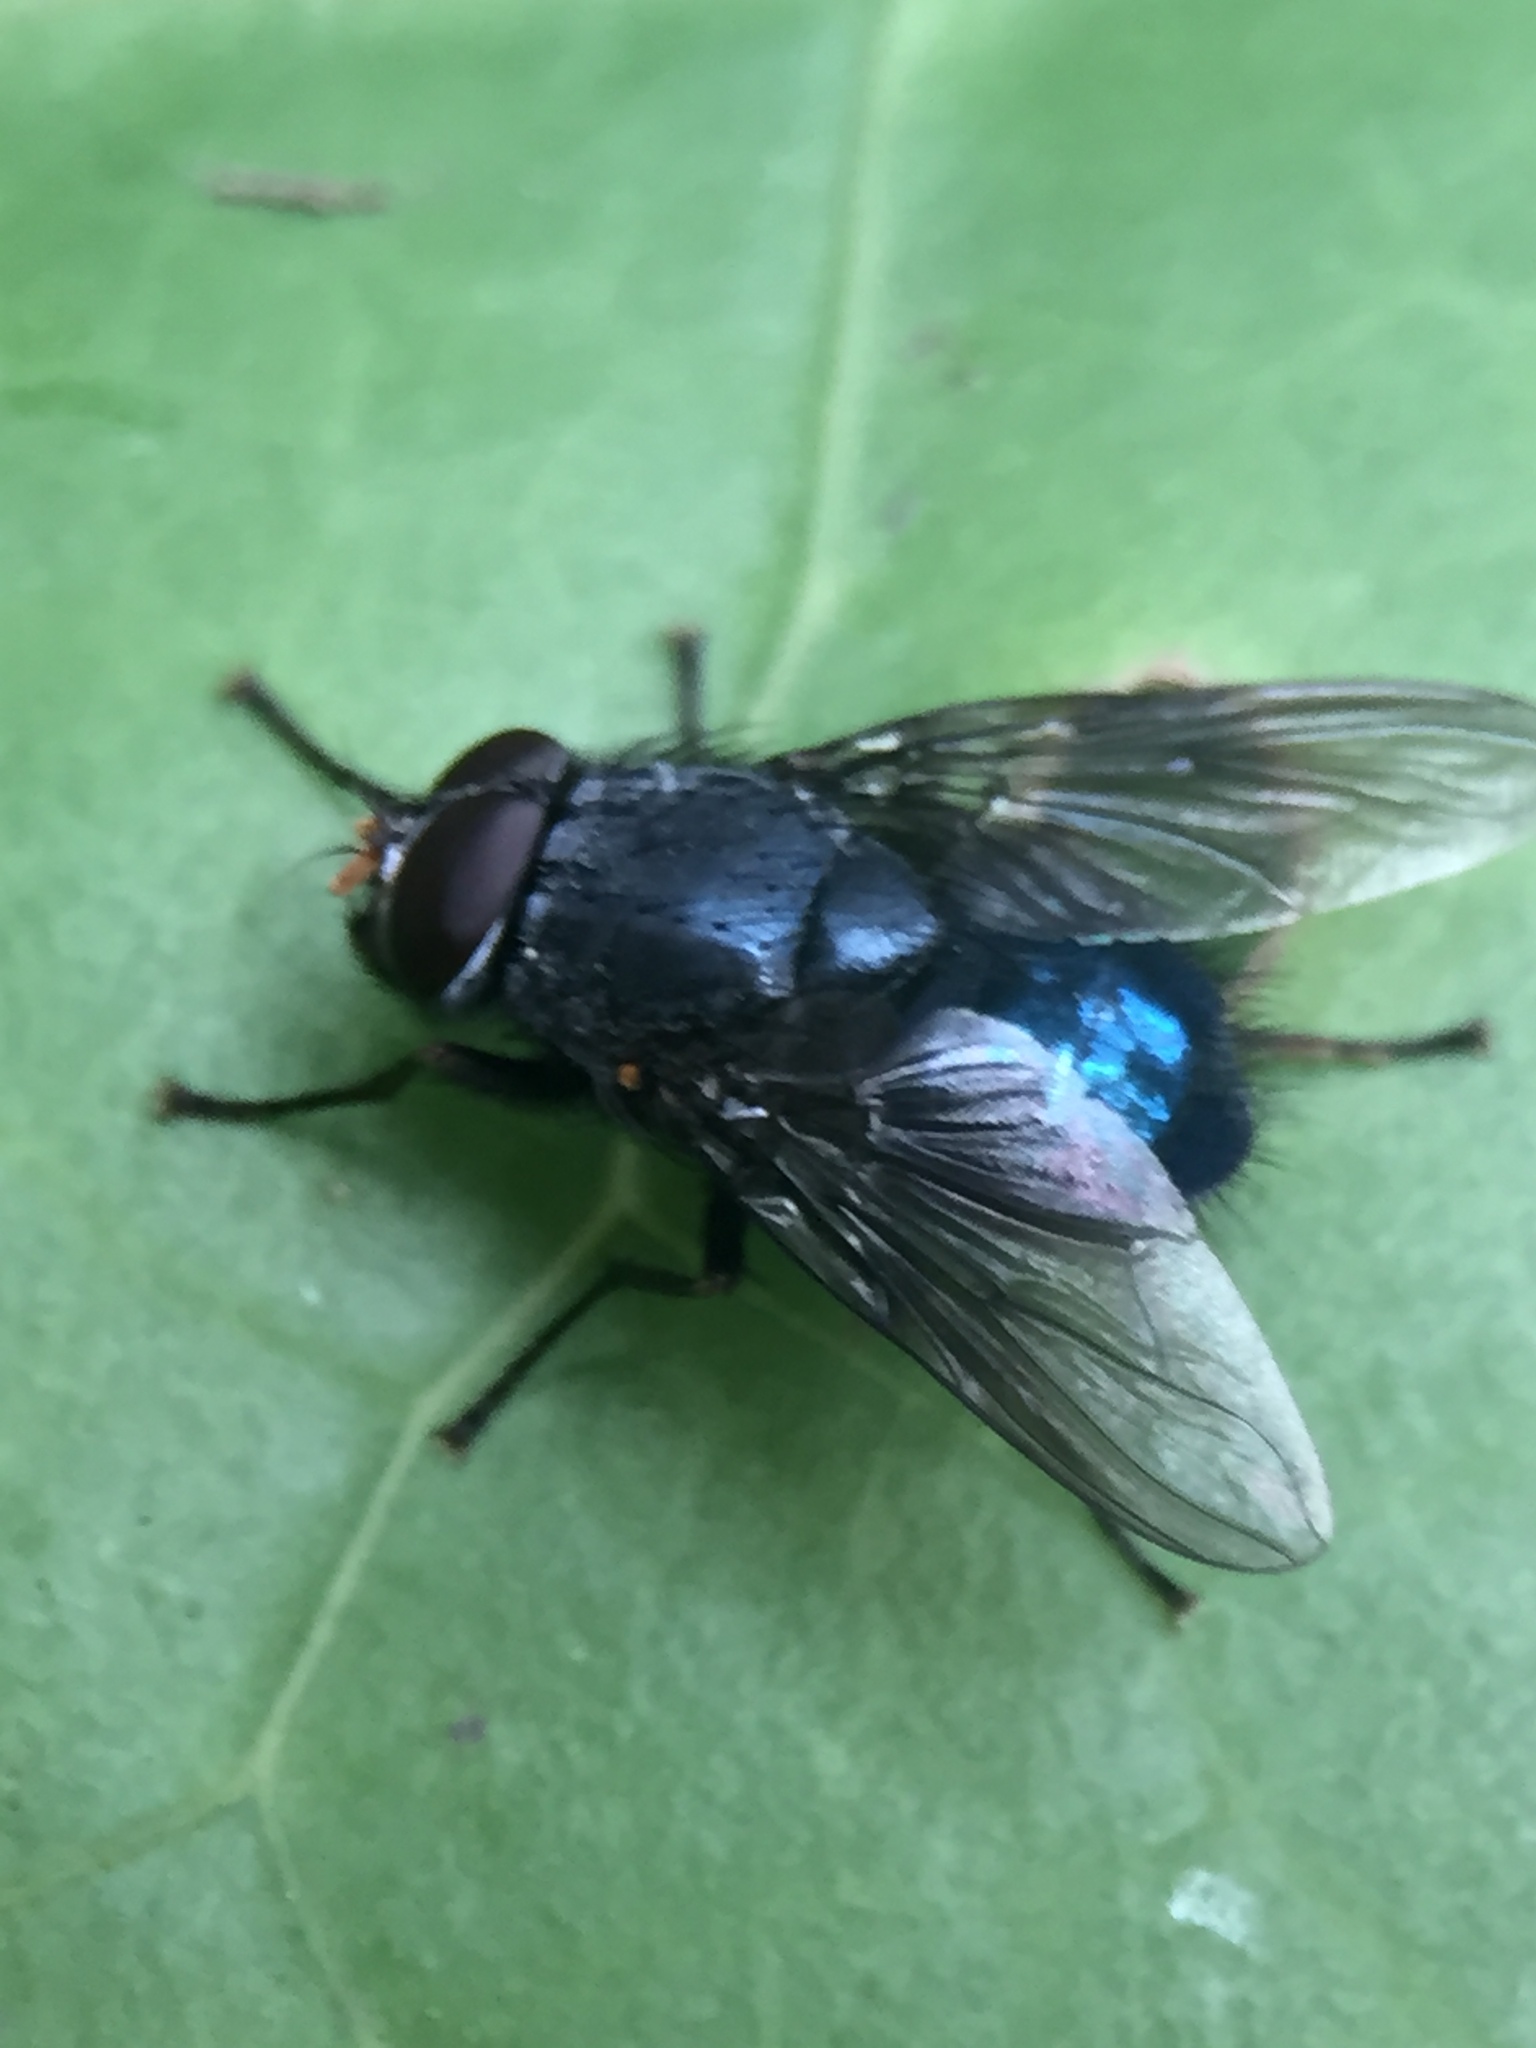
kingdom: Animalia
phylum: Arthropoda
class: Insecta
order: Diptera
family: Muscidae
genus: Calliphoroides
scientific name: Calliphoroides antennatis
